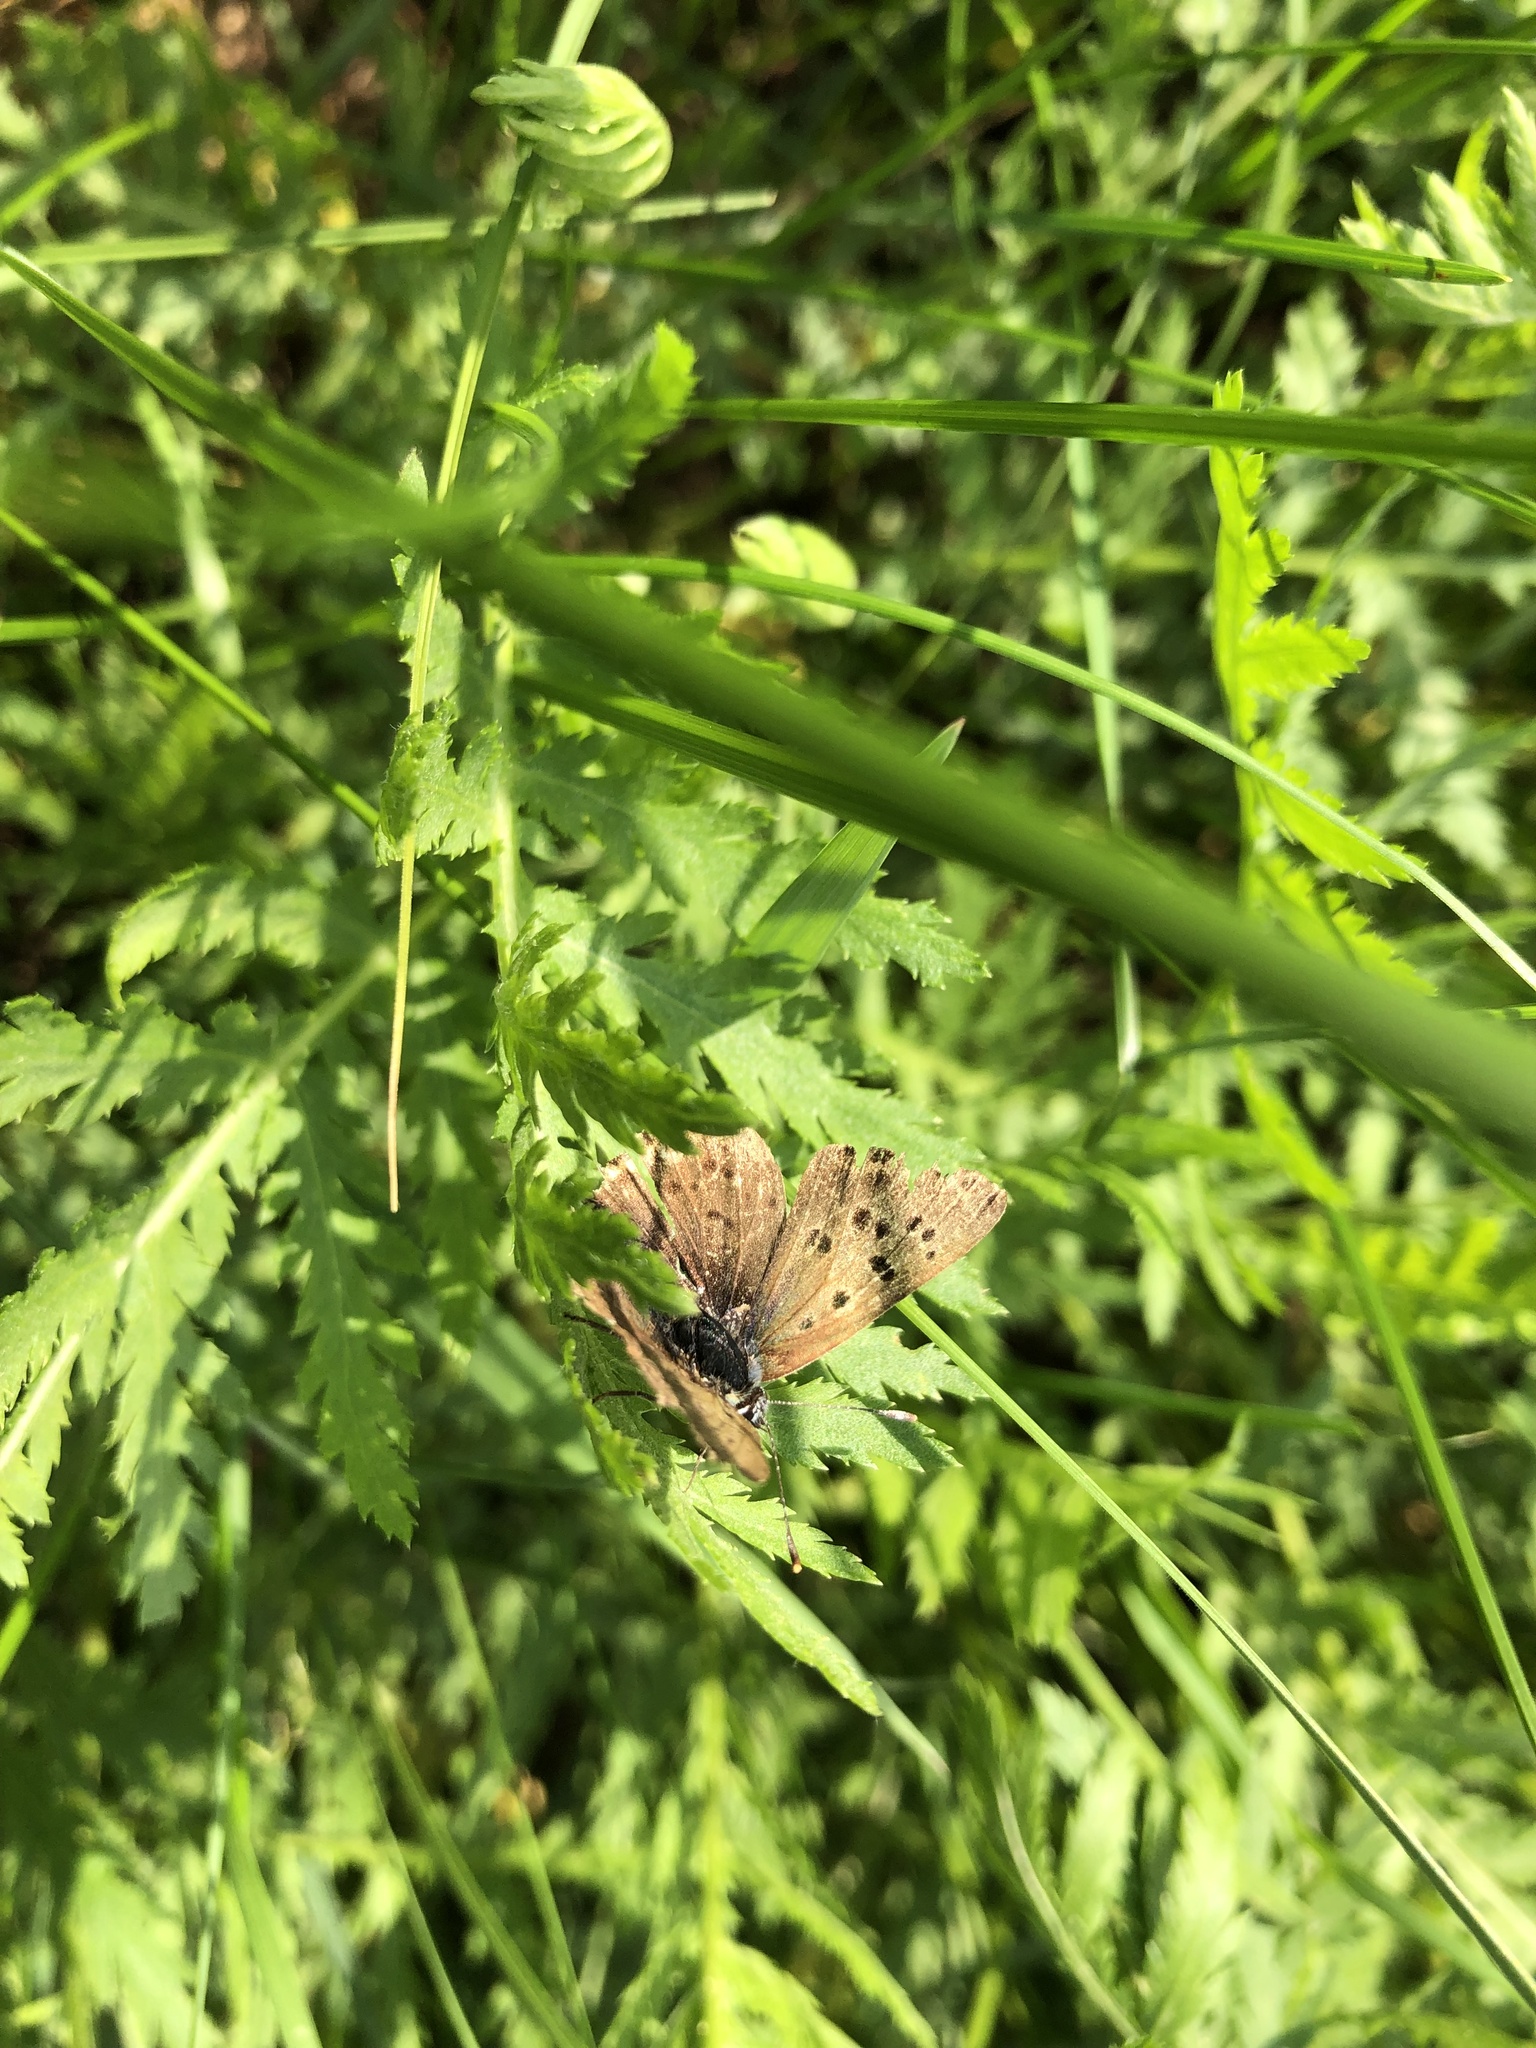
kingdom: Animalia
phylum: Arthropoda
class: Insecta
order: Lepidoptera
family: Lycaenidae
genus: Loweia
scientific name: Loweia tityrus
